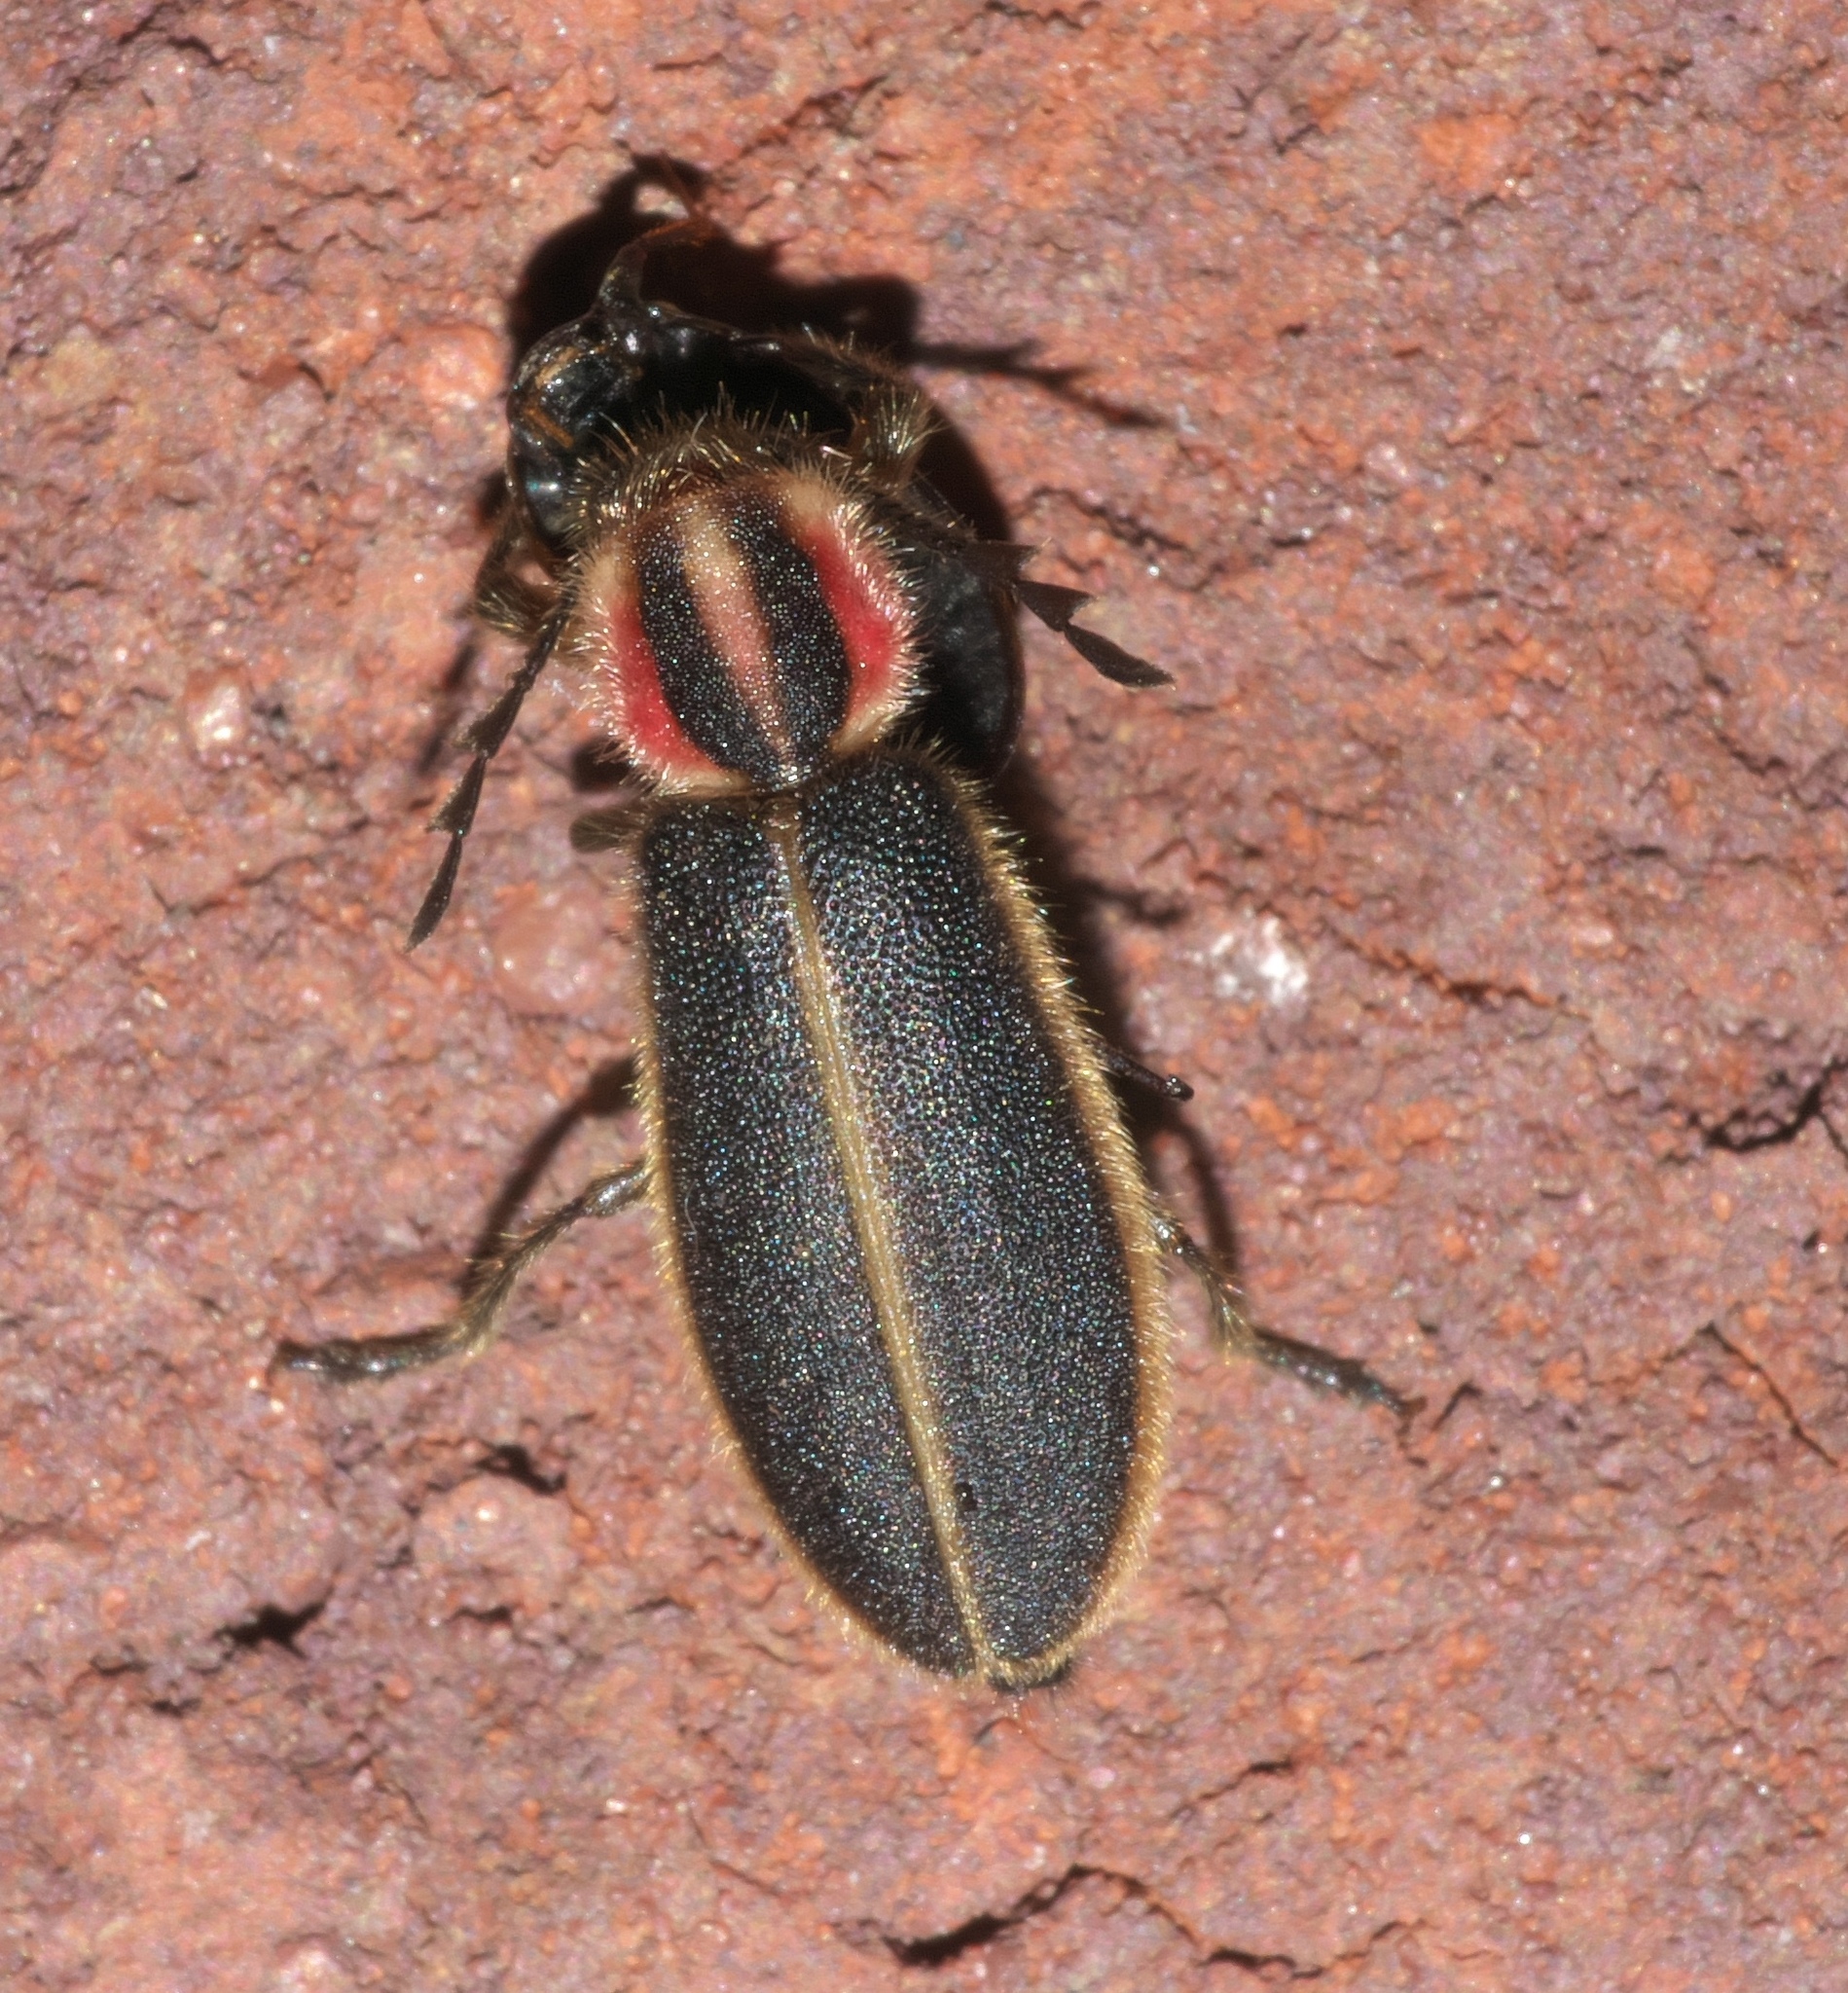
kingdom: Animalia
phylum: Arthropoda
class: Insecta
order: Coleoptera
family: Cleridae
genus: Chariessa
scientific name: Chariessa pilosa
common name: Pilose checkered beetle
